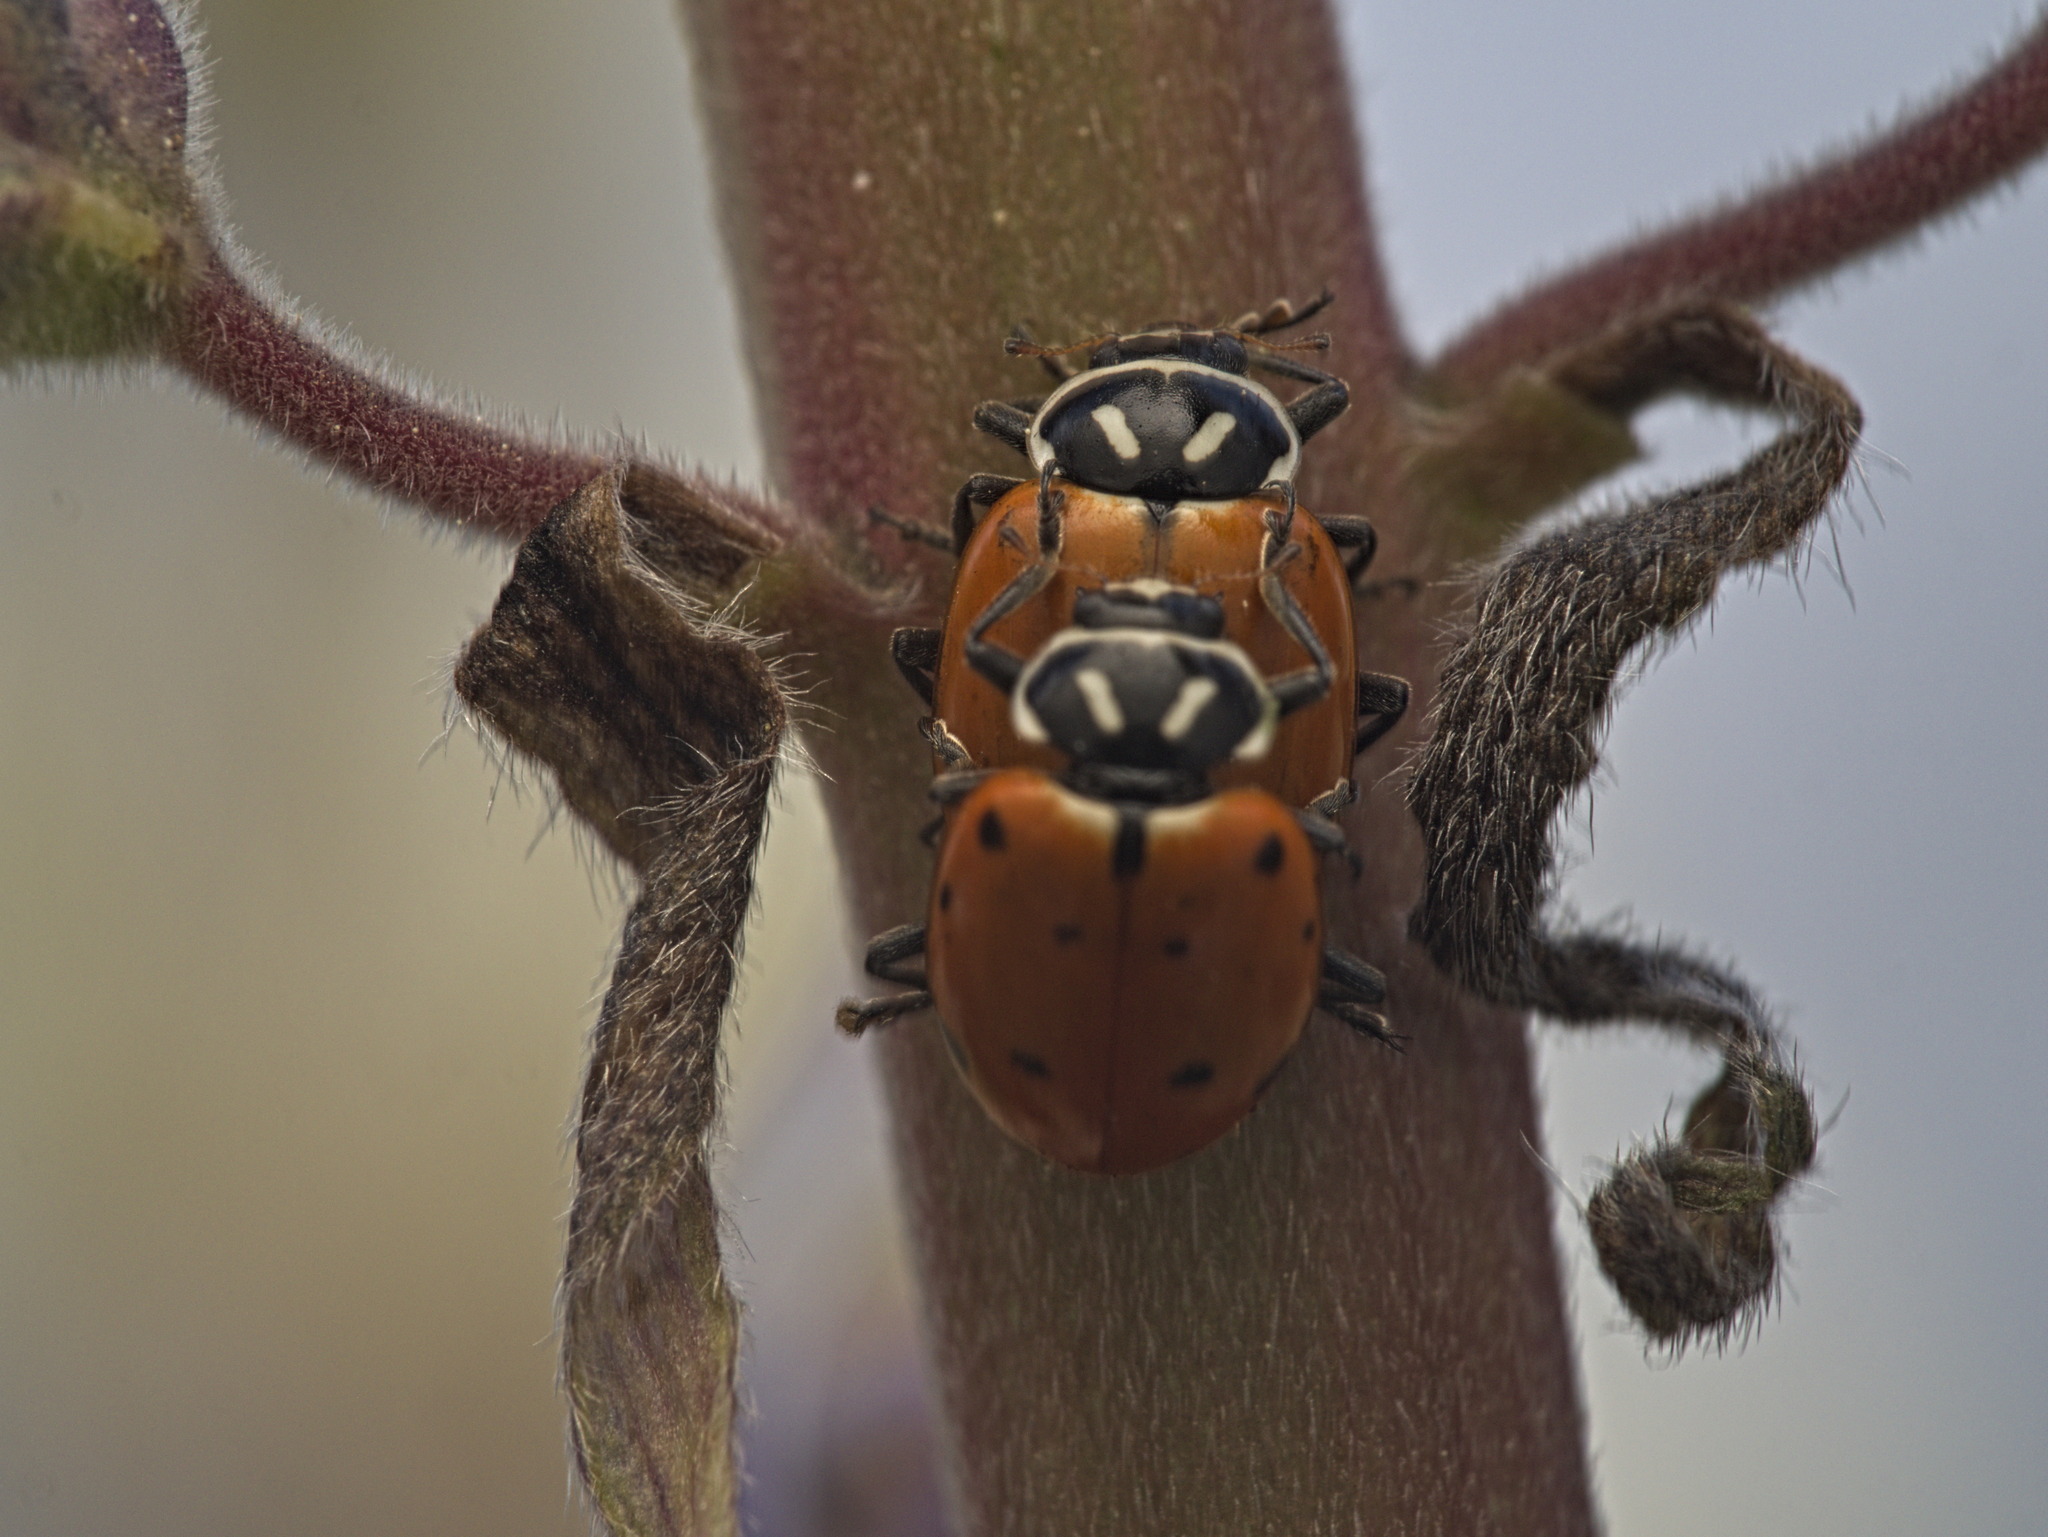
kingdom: Animalia
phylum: Arthropoda
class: Insecta
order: Coleoptera
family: Coccinellidae
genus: Hippodamia
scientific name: Hippodamia convergens
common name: Convergent lady beetle
